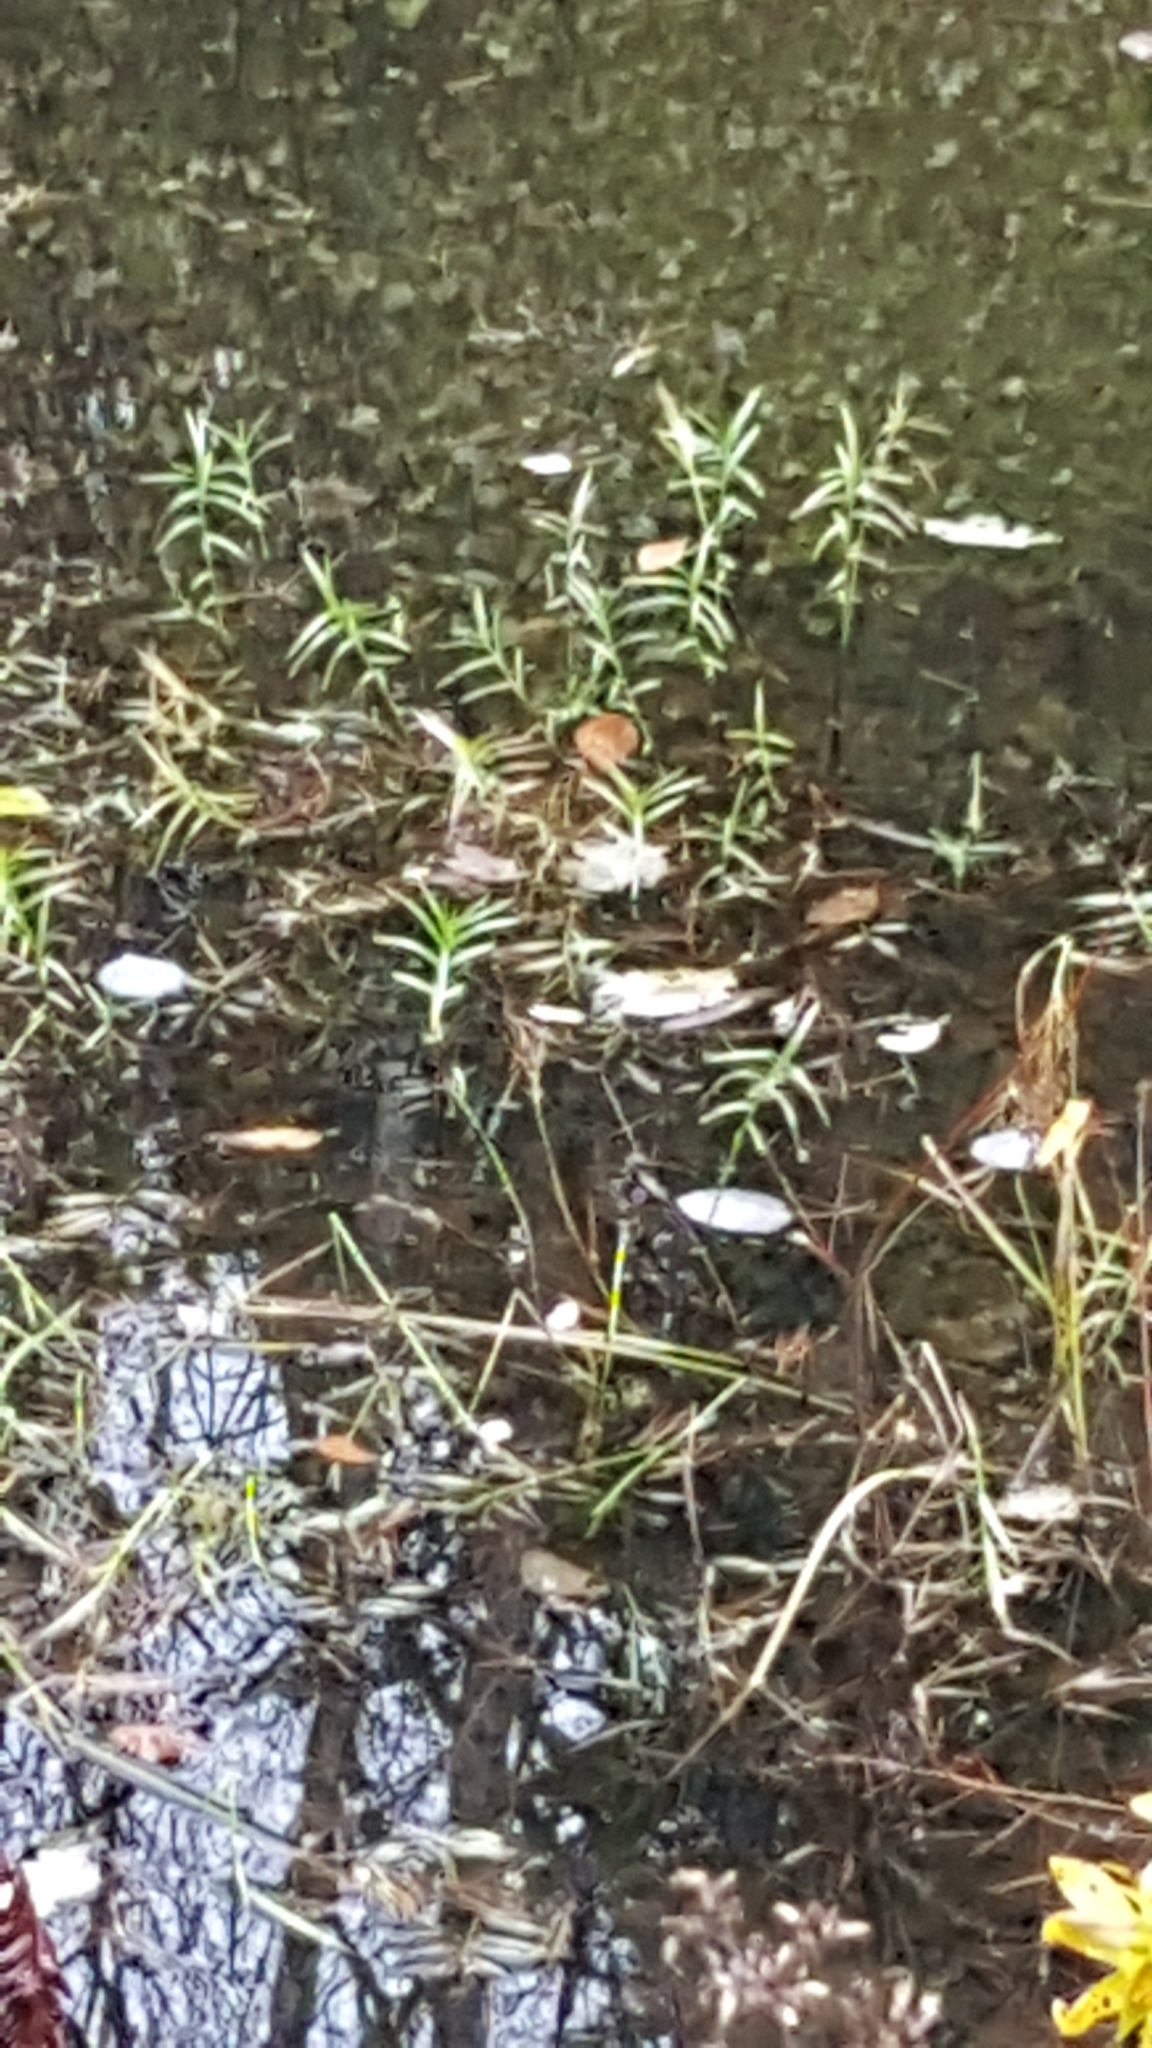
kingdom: Plantae
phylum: Tracheophyta
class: Liliopsida
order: Poales
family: Cyperaceae
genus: Dulichium
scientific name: Dulichium arundinaceum
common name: Three-way sedge
